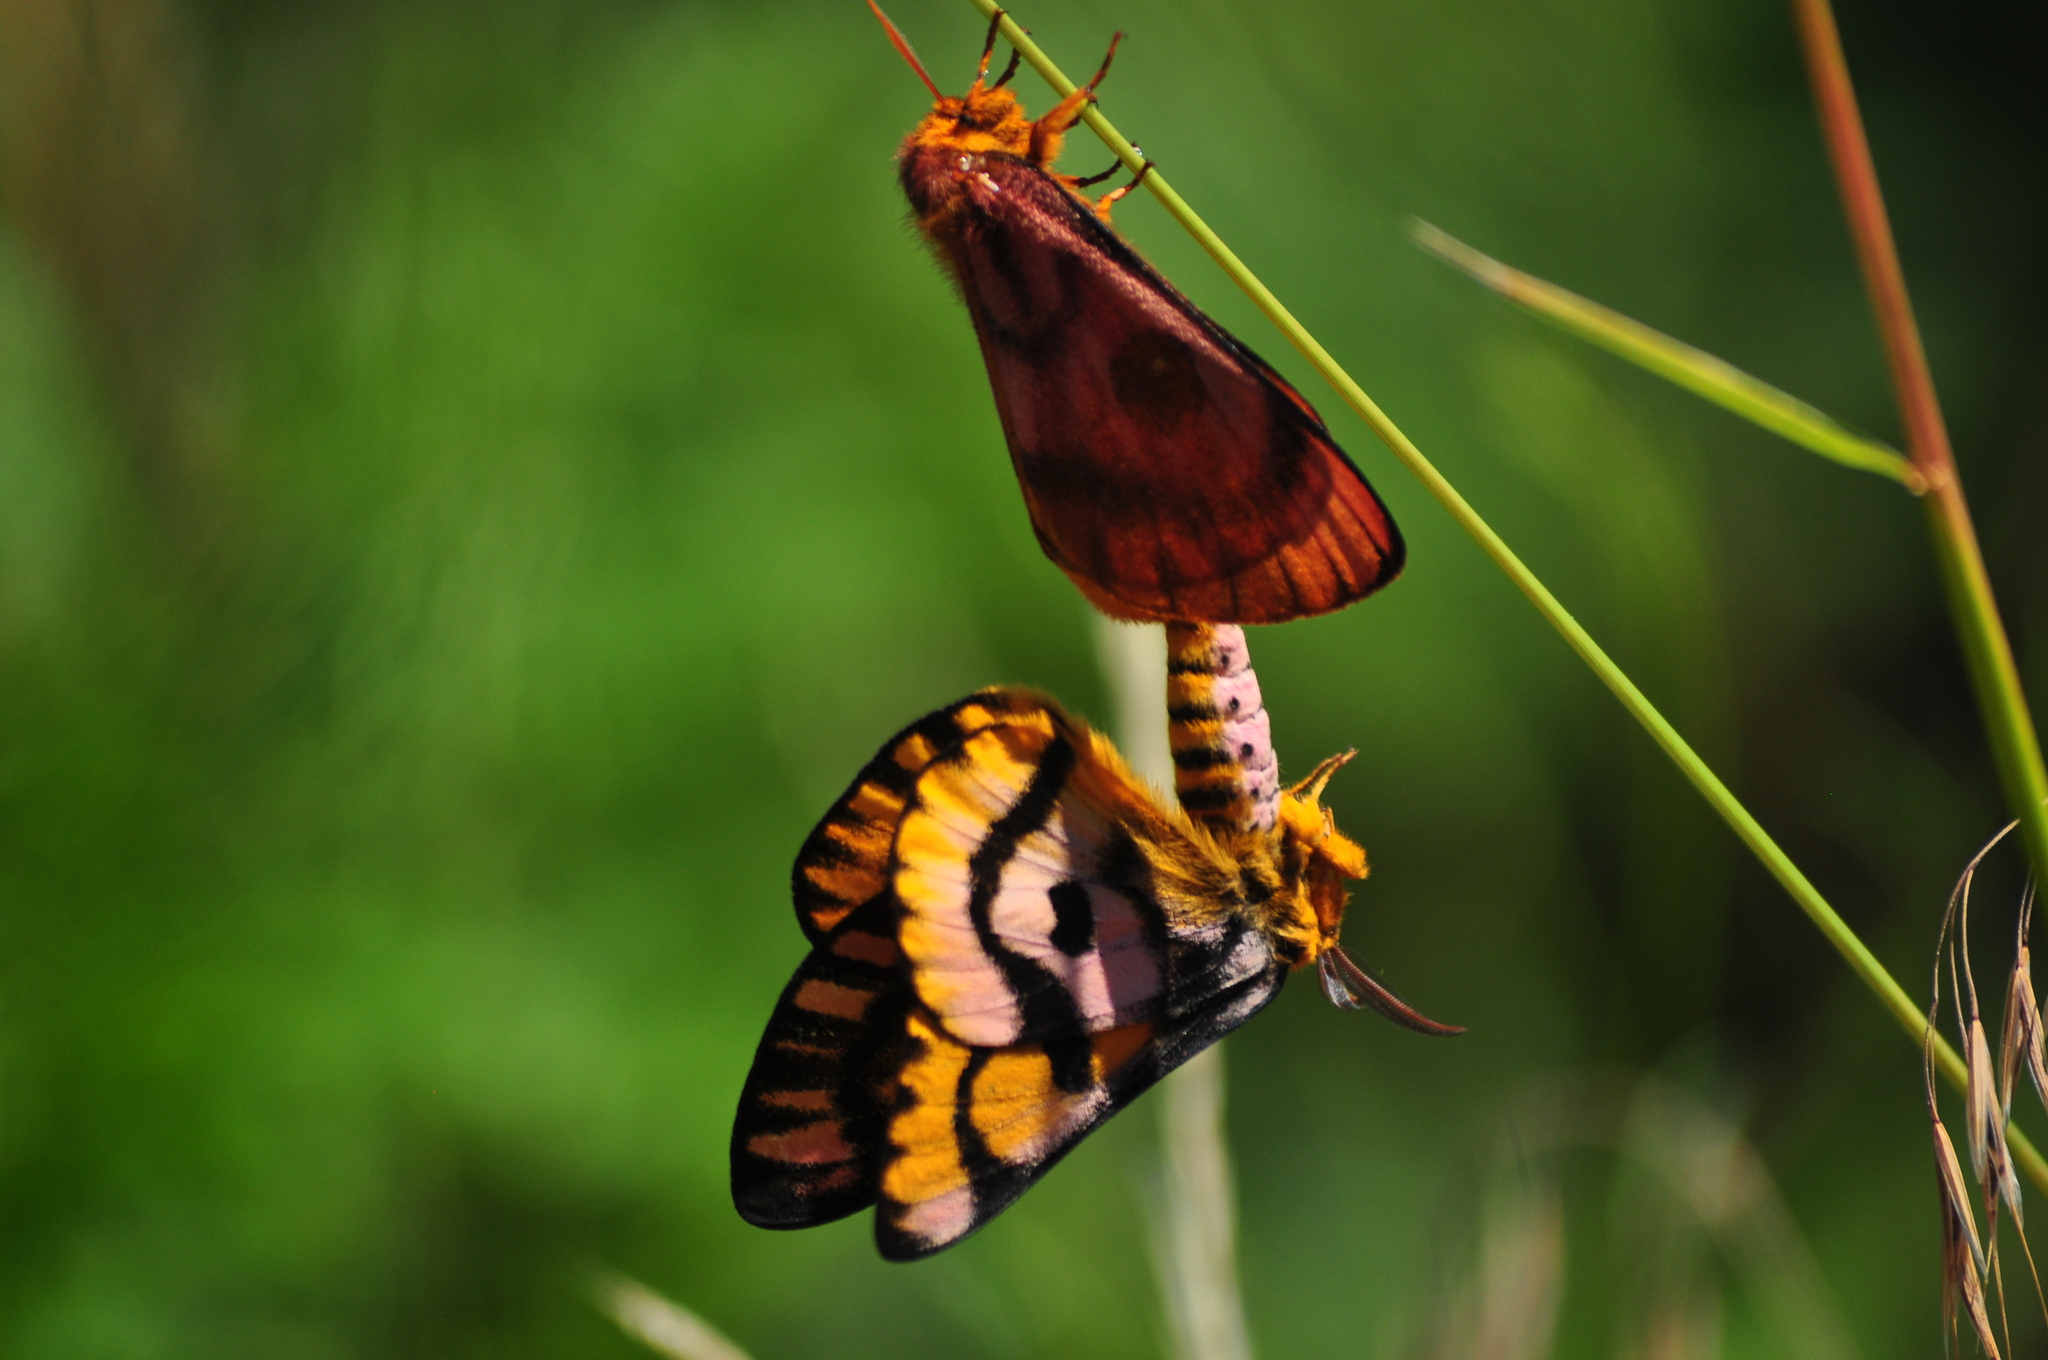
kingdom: Animalia
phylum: Arthropoda
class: Insecta
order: Lepidoptera
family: Saturniidae
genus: Hemileuca
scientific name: Hemileuca eglanterina
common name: Western sheepmoth
